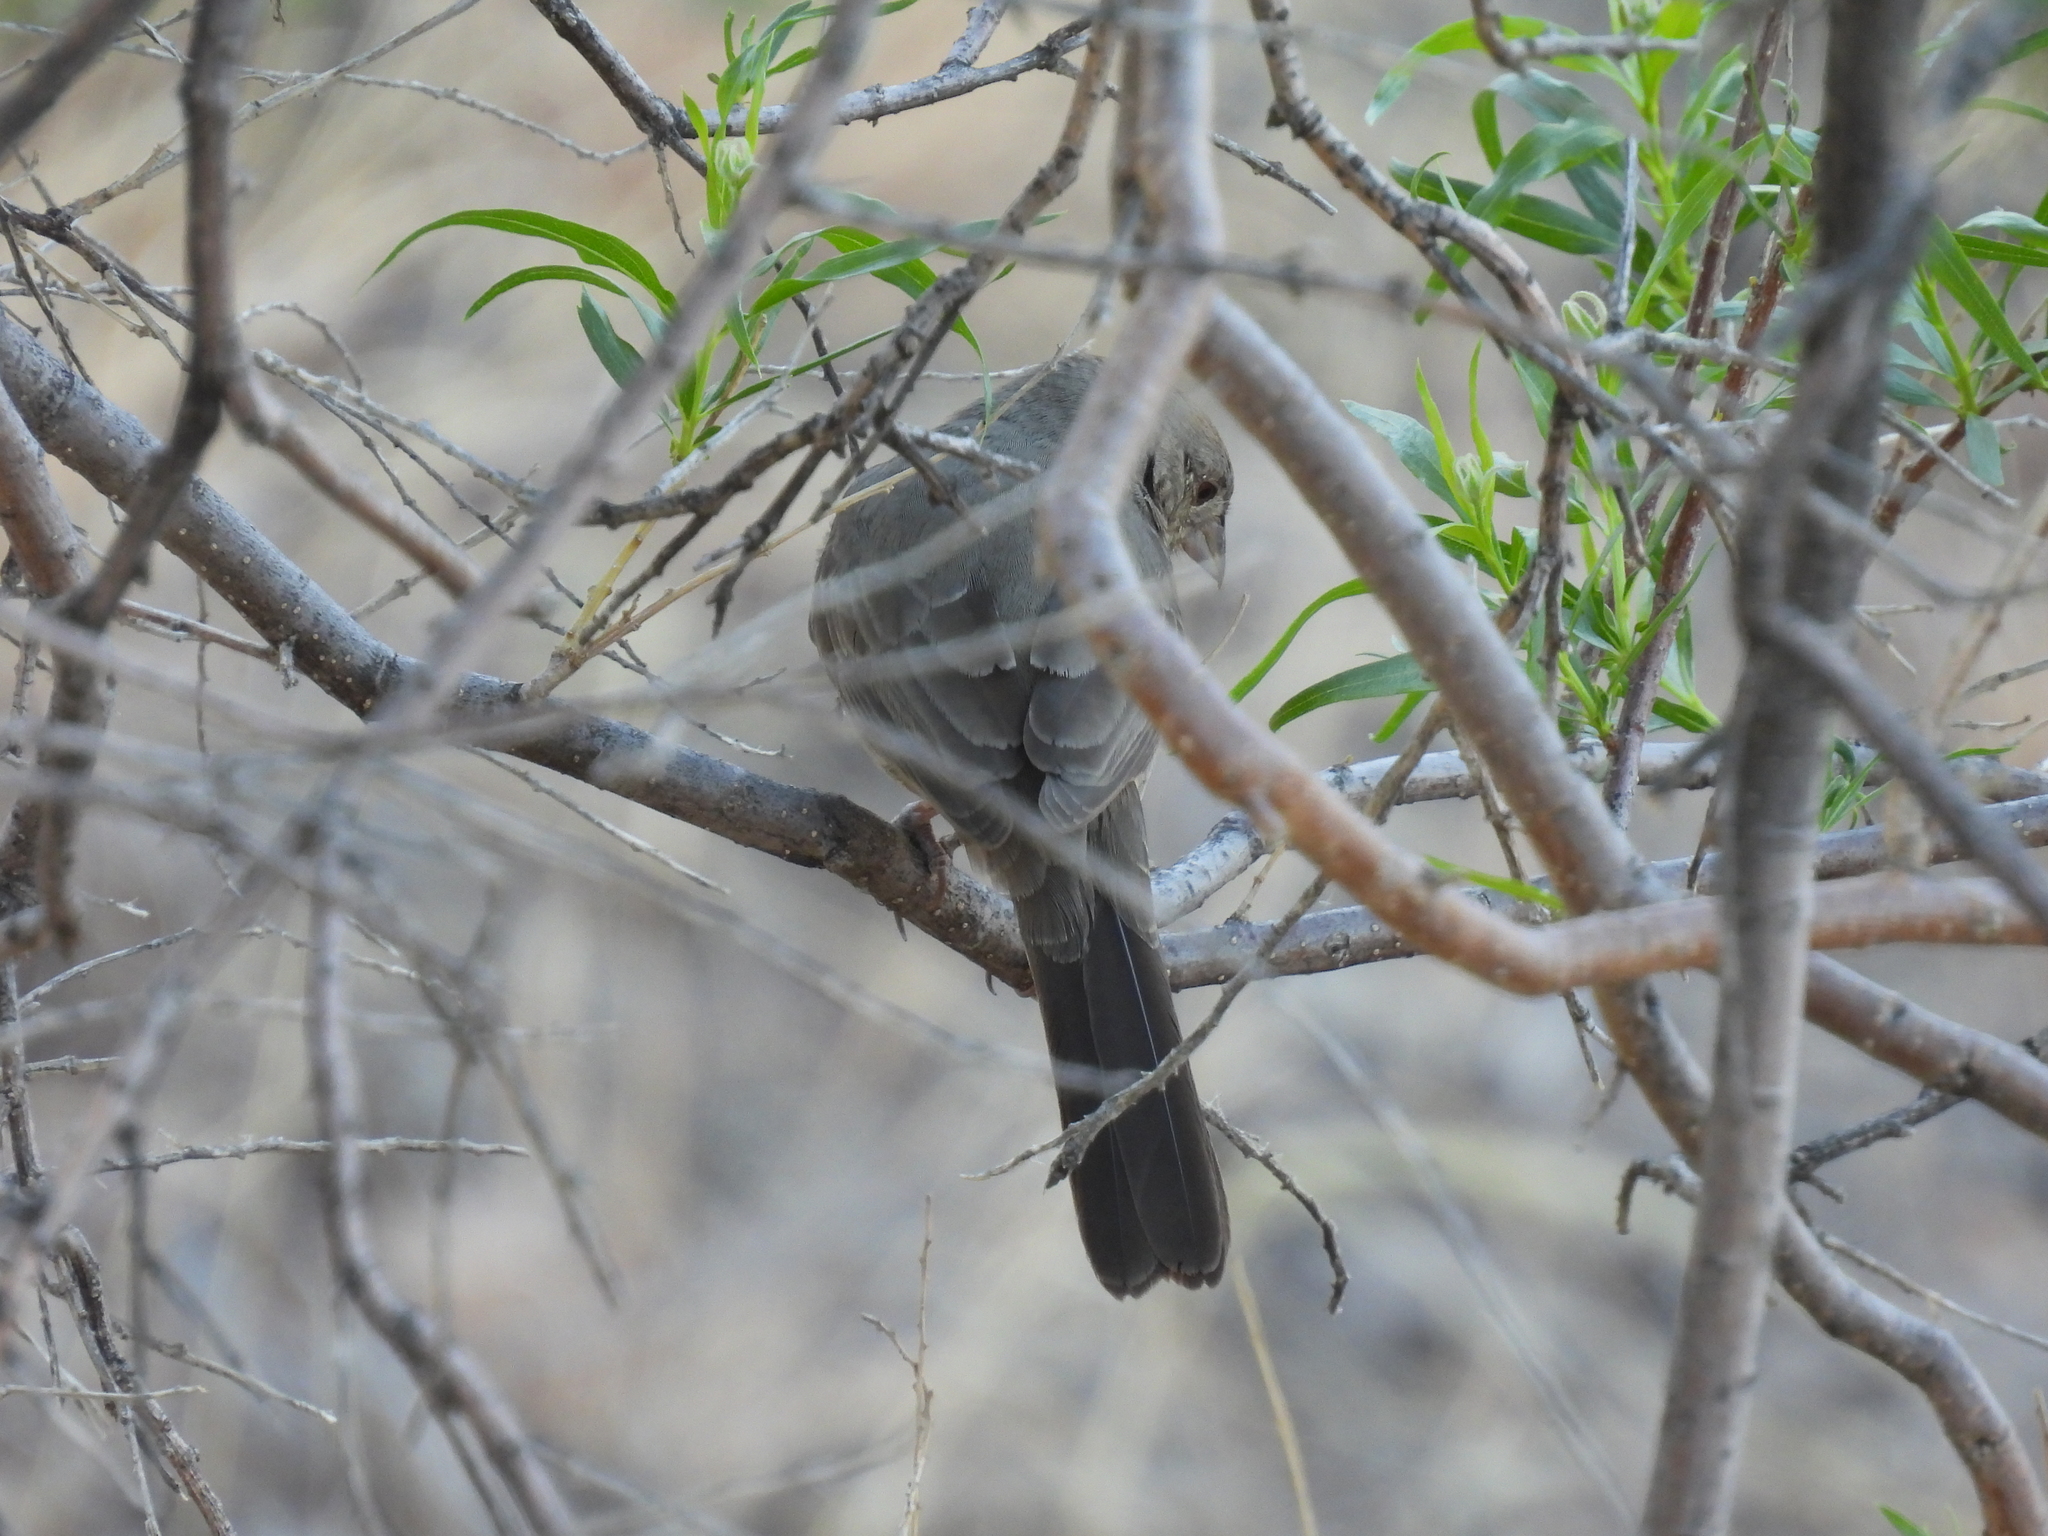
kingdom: Animalia
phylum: Chordata
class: Aves
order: Passeriformes
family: Passerellidae
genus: Melozone
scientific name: Melozone fusca
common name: Canyon towhee
